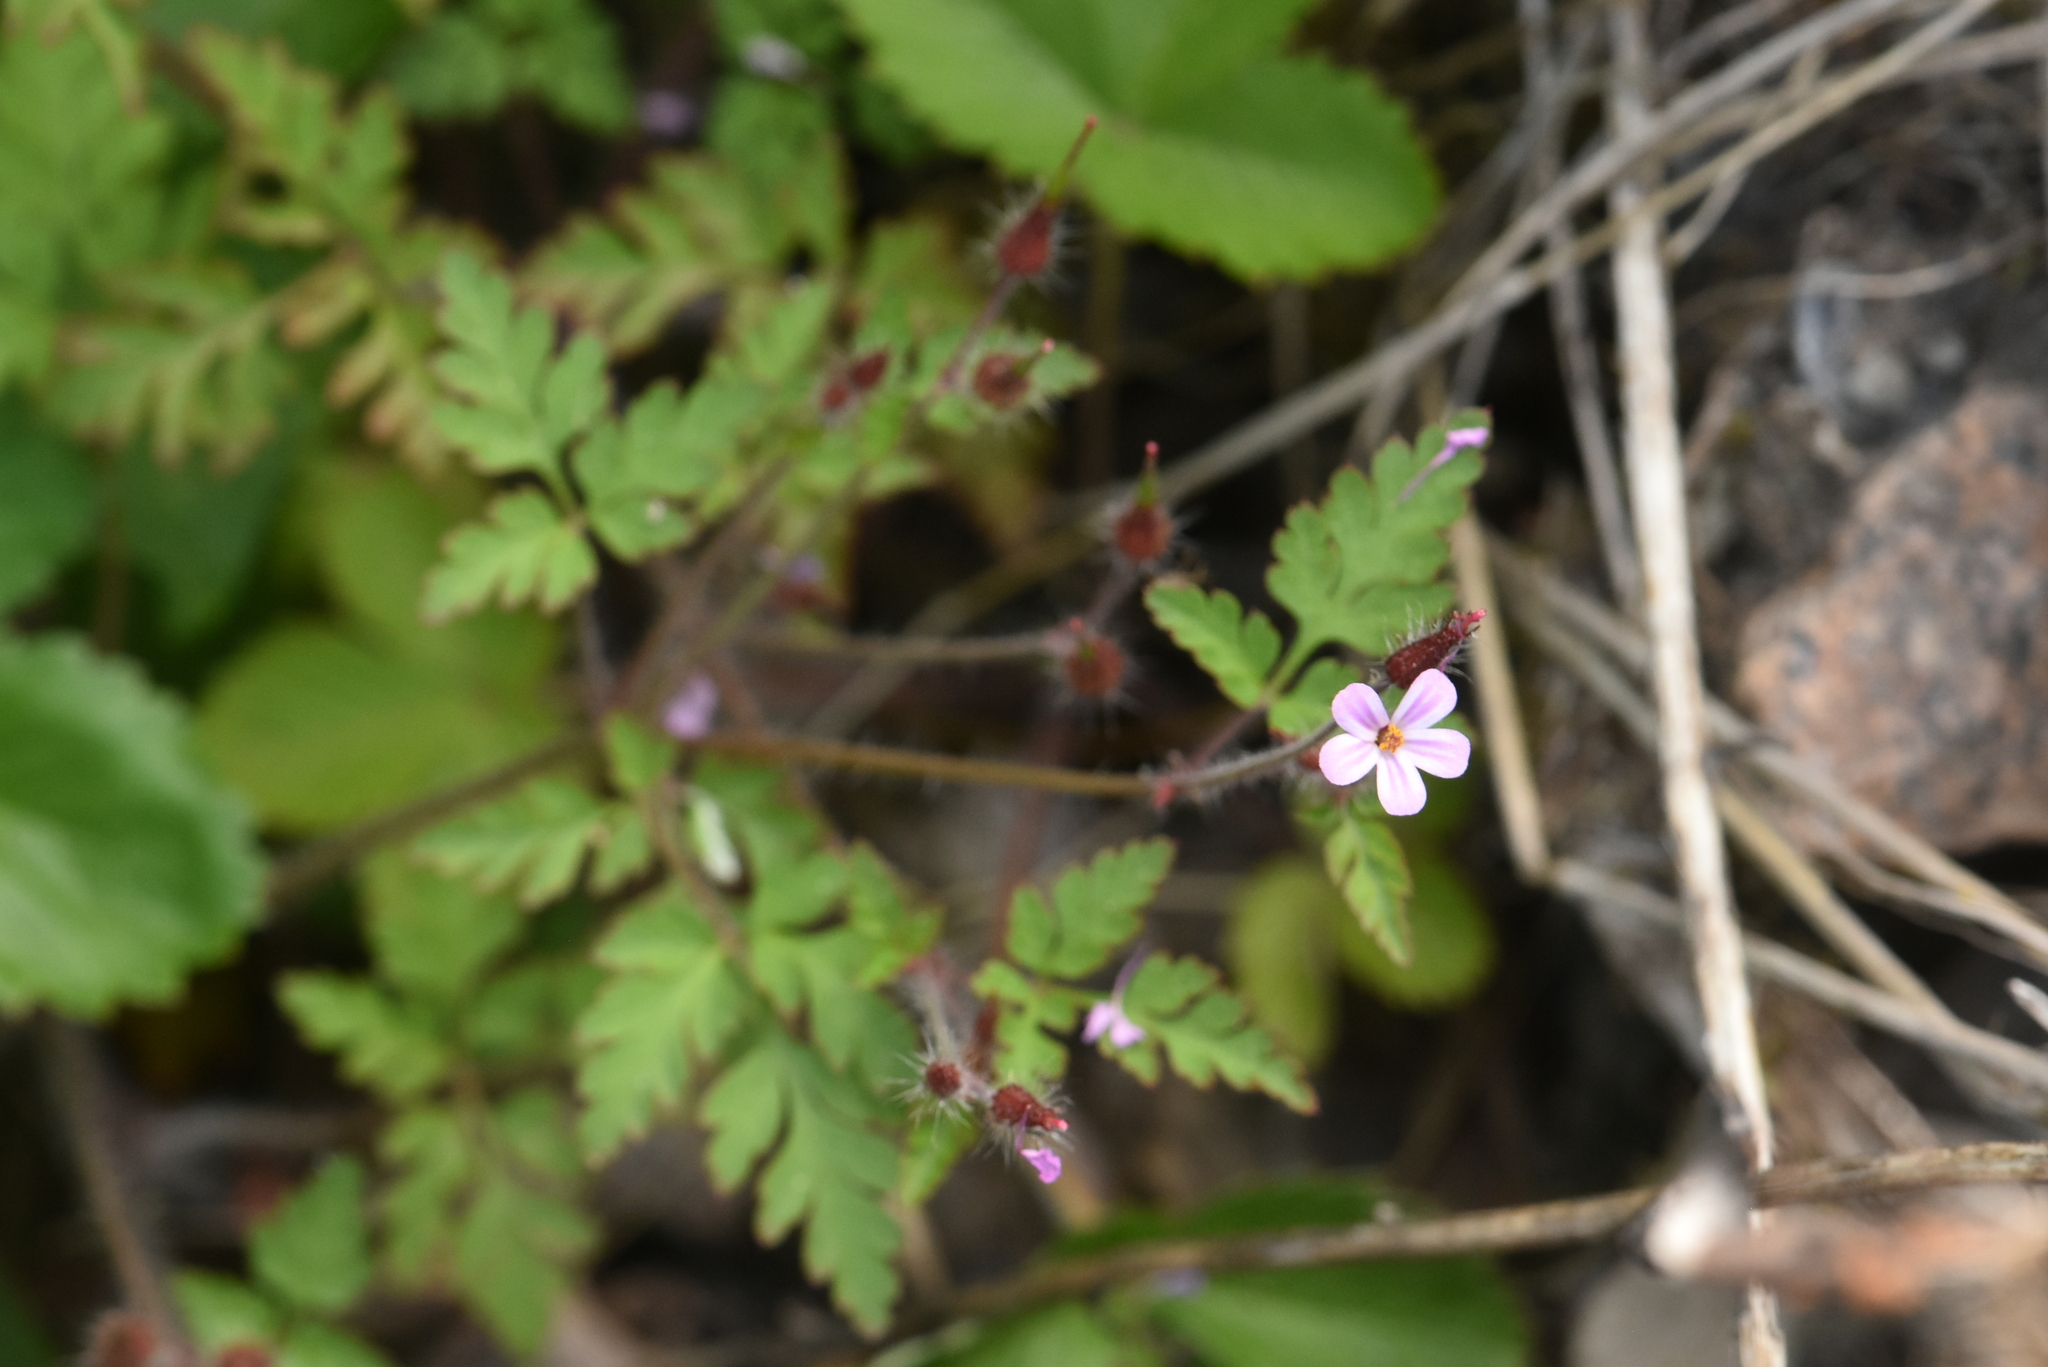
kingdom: Plantae
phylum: Tracheophyta
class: Magnoliopsida
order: Geraniales
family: Geraniaceae
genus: Geranium
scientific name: Geranium robertianum
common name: Herb-robert
